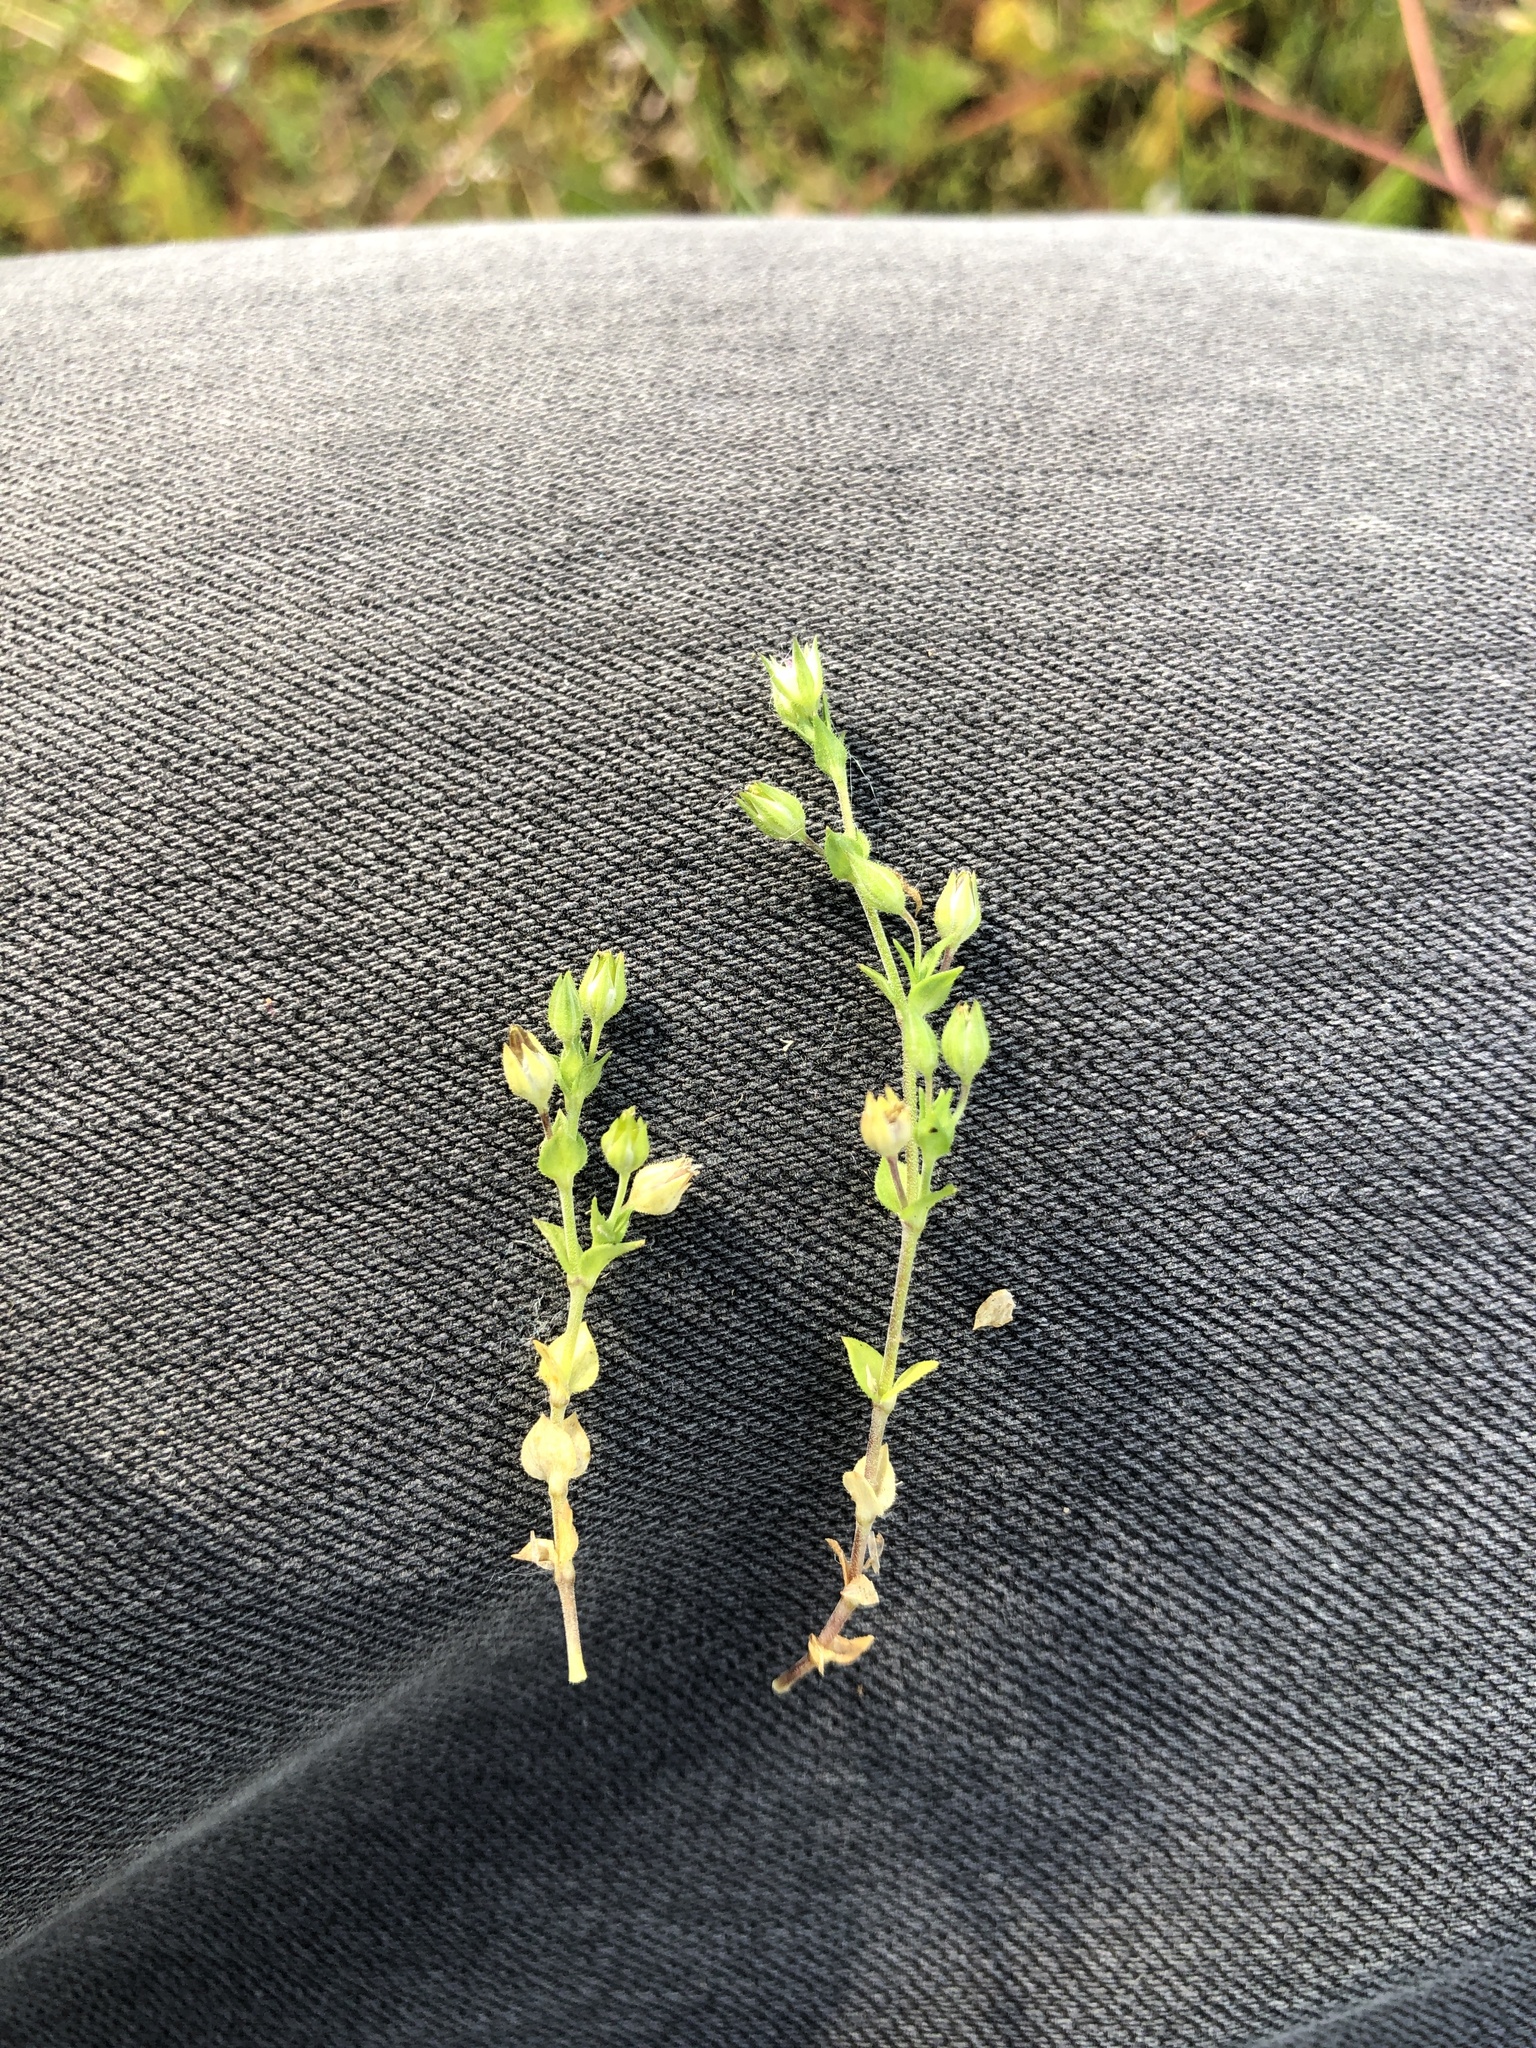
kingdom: Plantae
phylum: Tracheophyta
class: Magnoliopsida
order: Caryophyllales
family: Caryophyllaceae
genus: Arenaria
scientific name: Arenaria serpyllifolia
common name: Thyme-leaved sandwort
